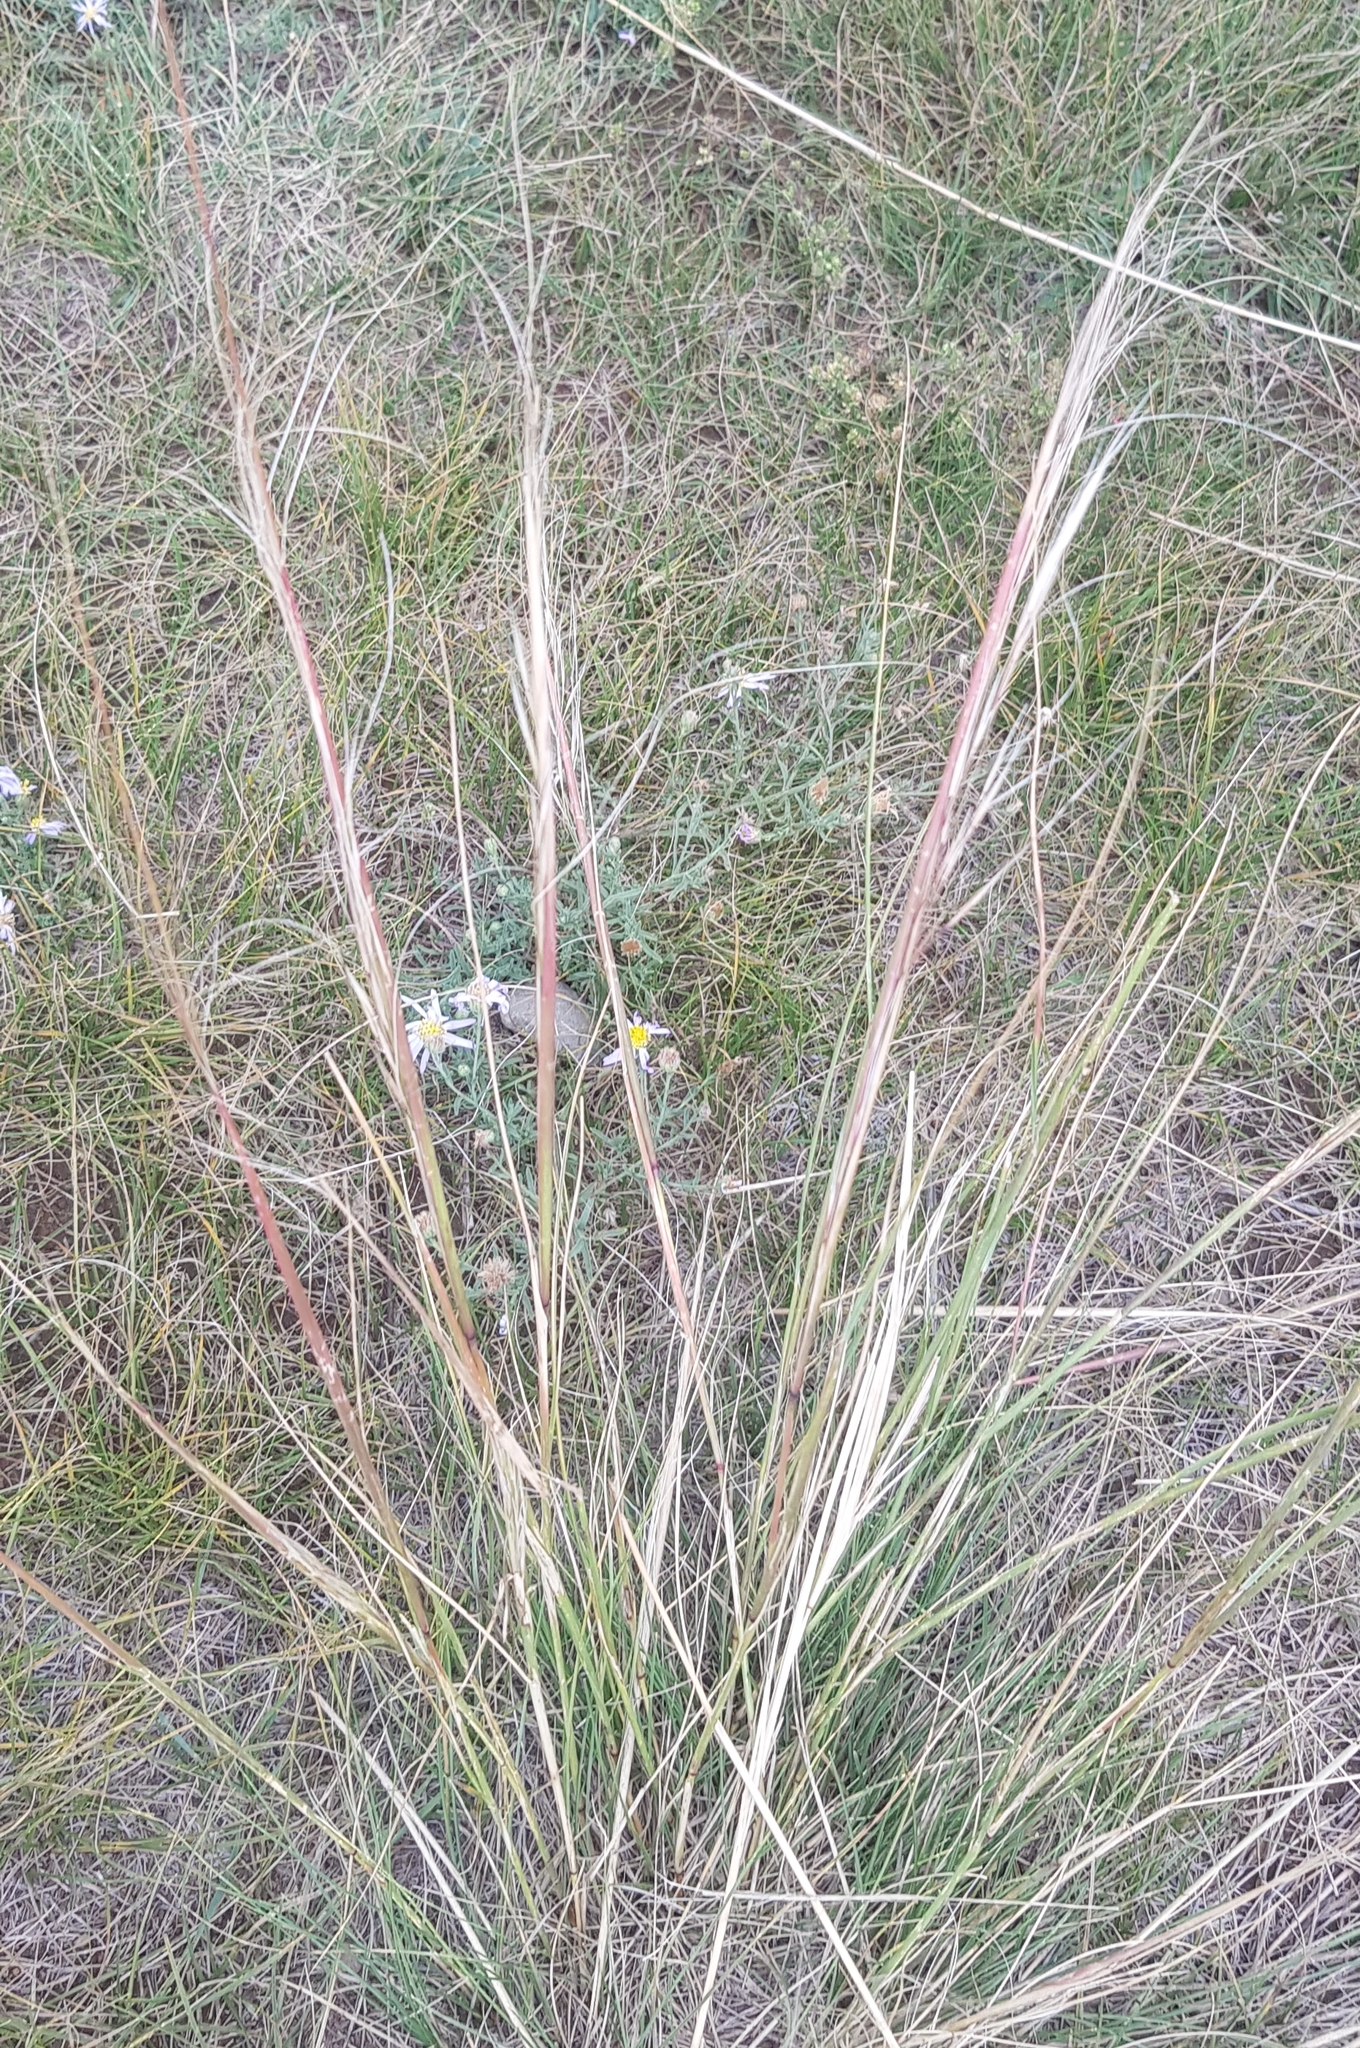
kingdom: Plantae
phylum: Tracheophyta
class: Liliopsida
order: Poales
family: Poaceae
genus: Stipa
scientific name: Stipa krylovii
